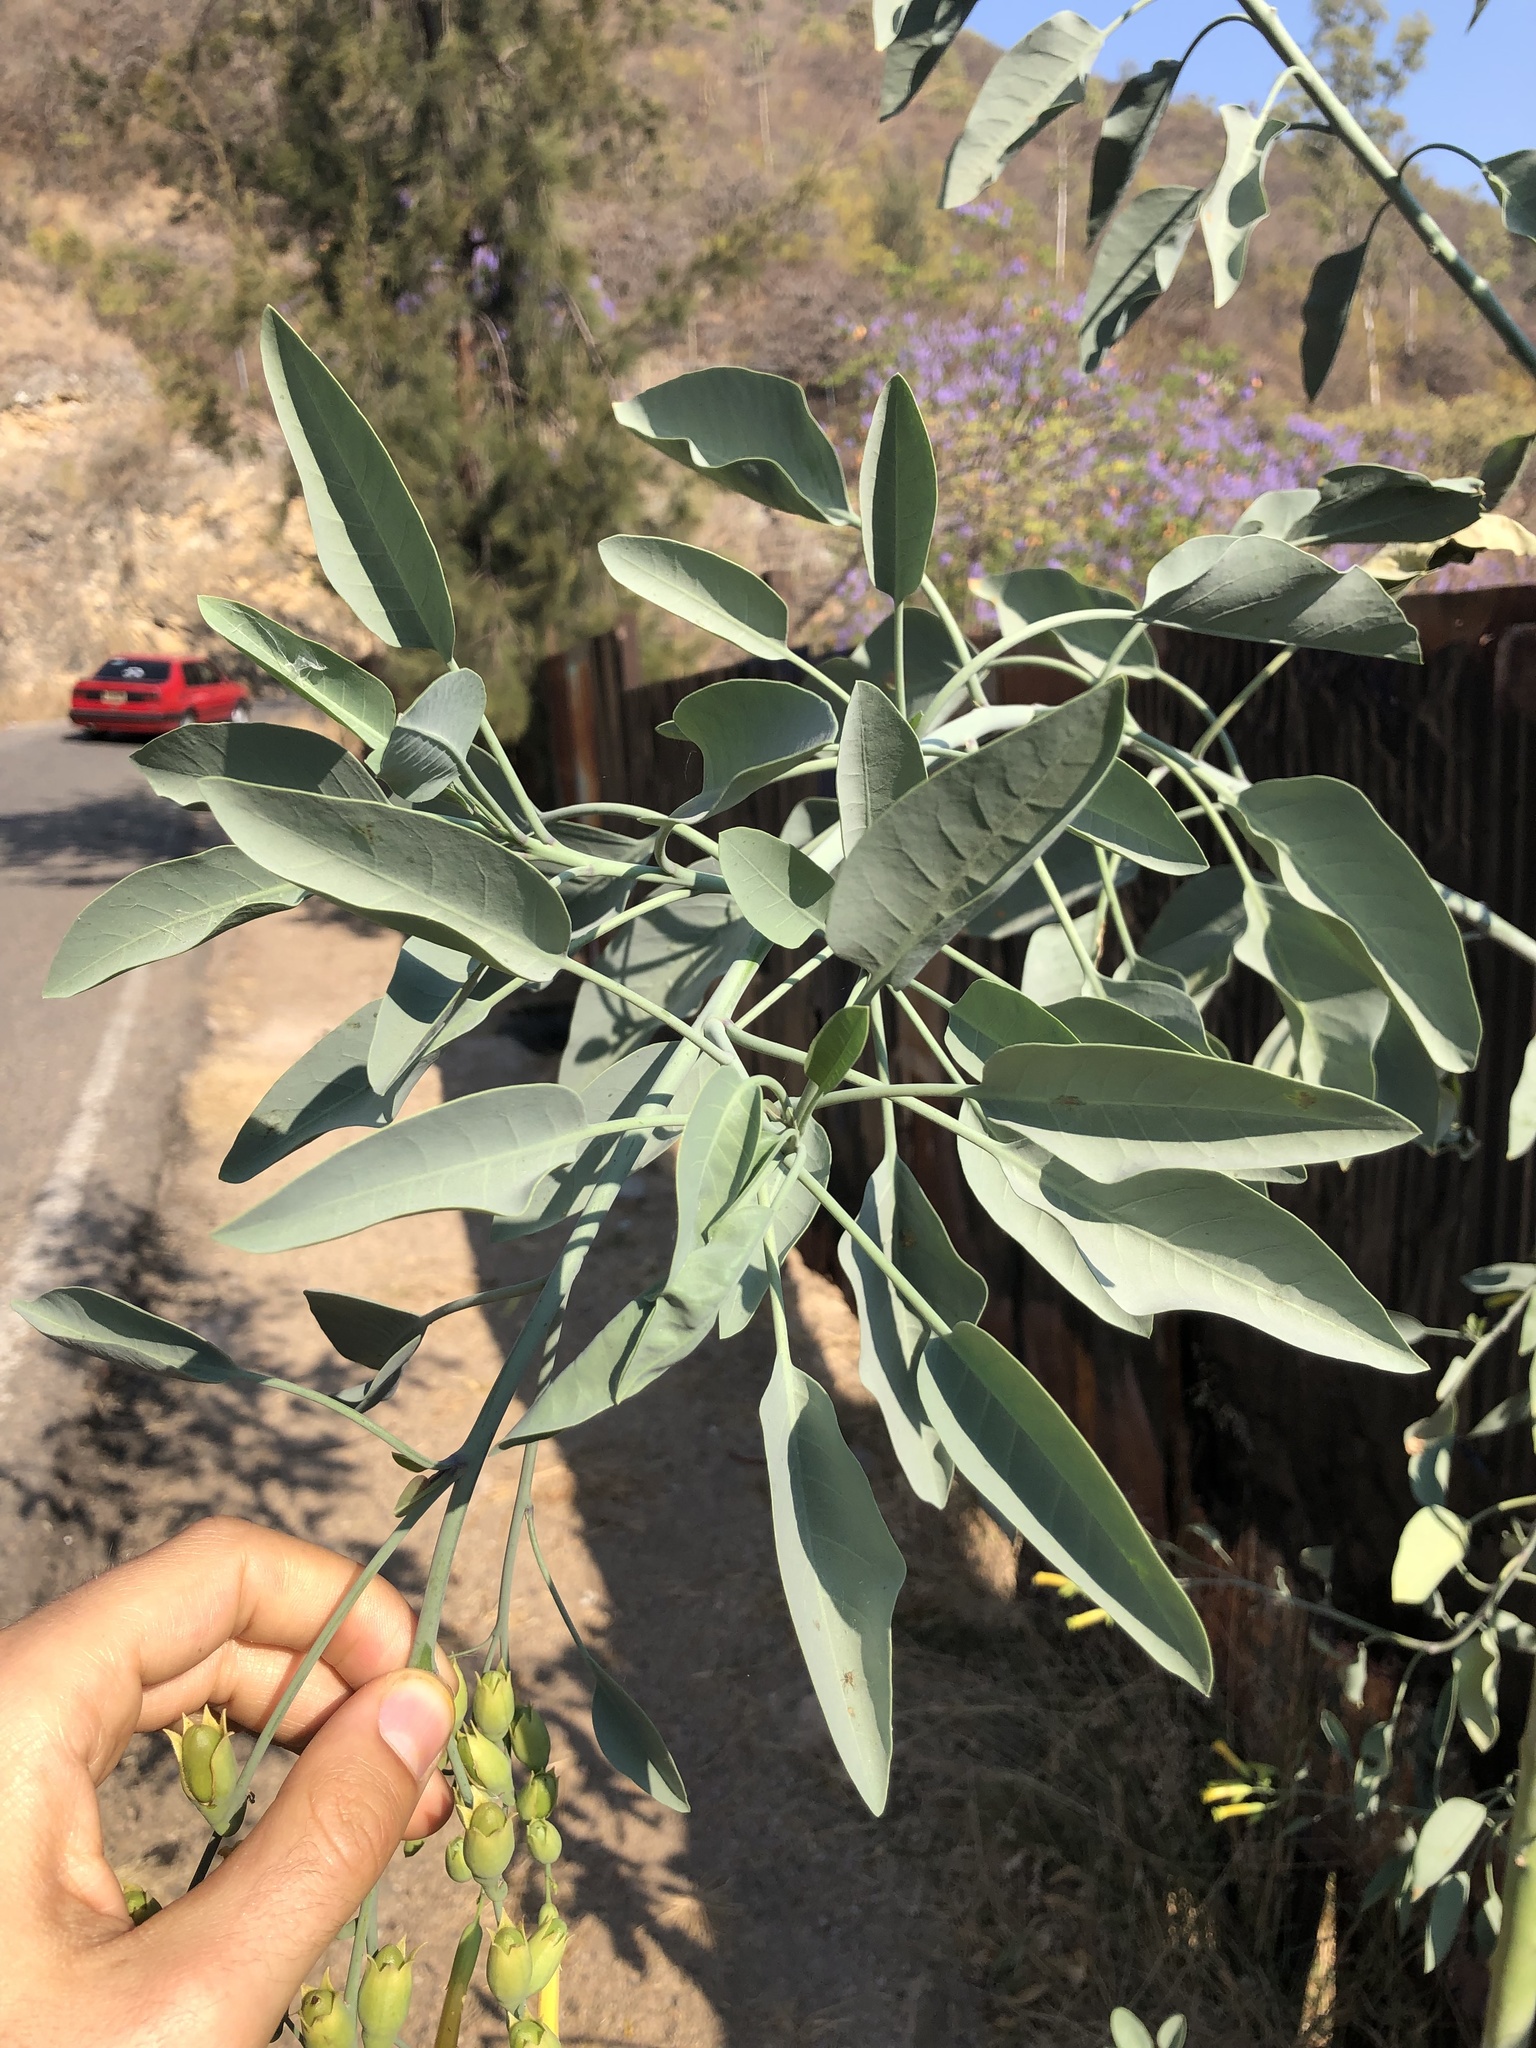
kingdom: Plantae
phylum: Tracheophyta
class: Magnoliopsida
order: Solanales
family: Solanaceae
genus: Nicotiana
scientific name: Nicotiana glauca
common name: Tree tobacco
